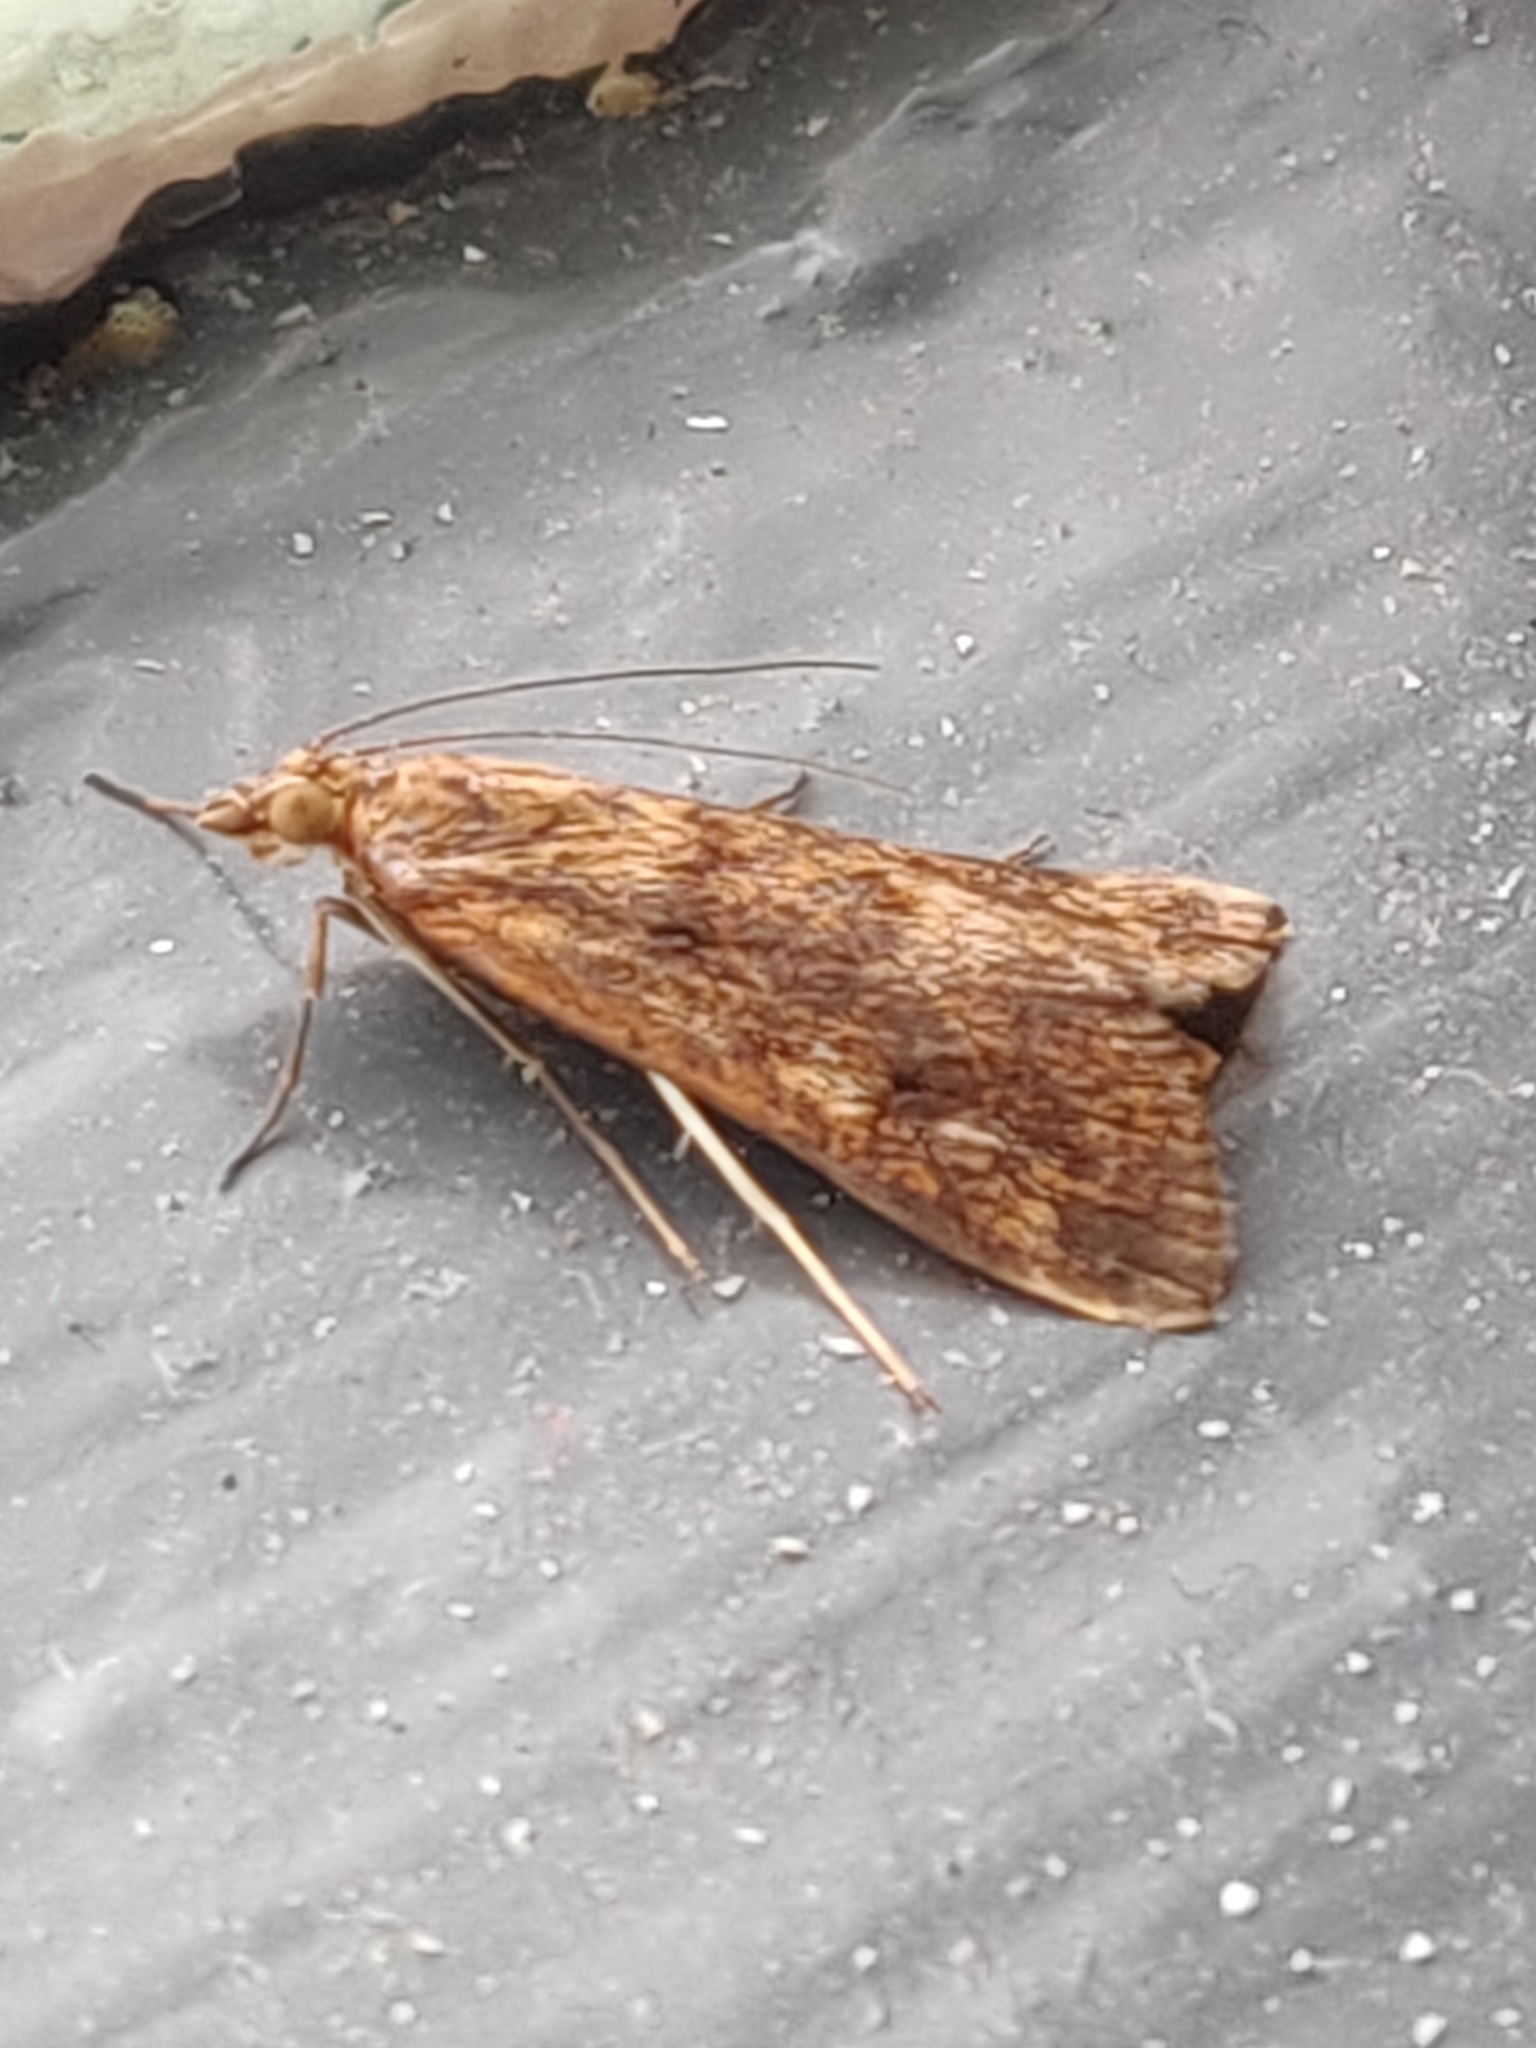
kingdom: Animalia
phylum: Arthropoda
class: Insecta
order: Lepidoptera
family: Crambidae
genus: Achyra
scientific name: Achyra affinitalis
